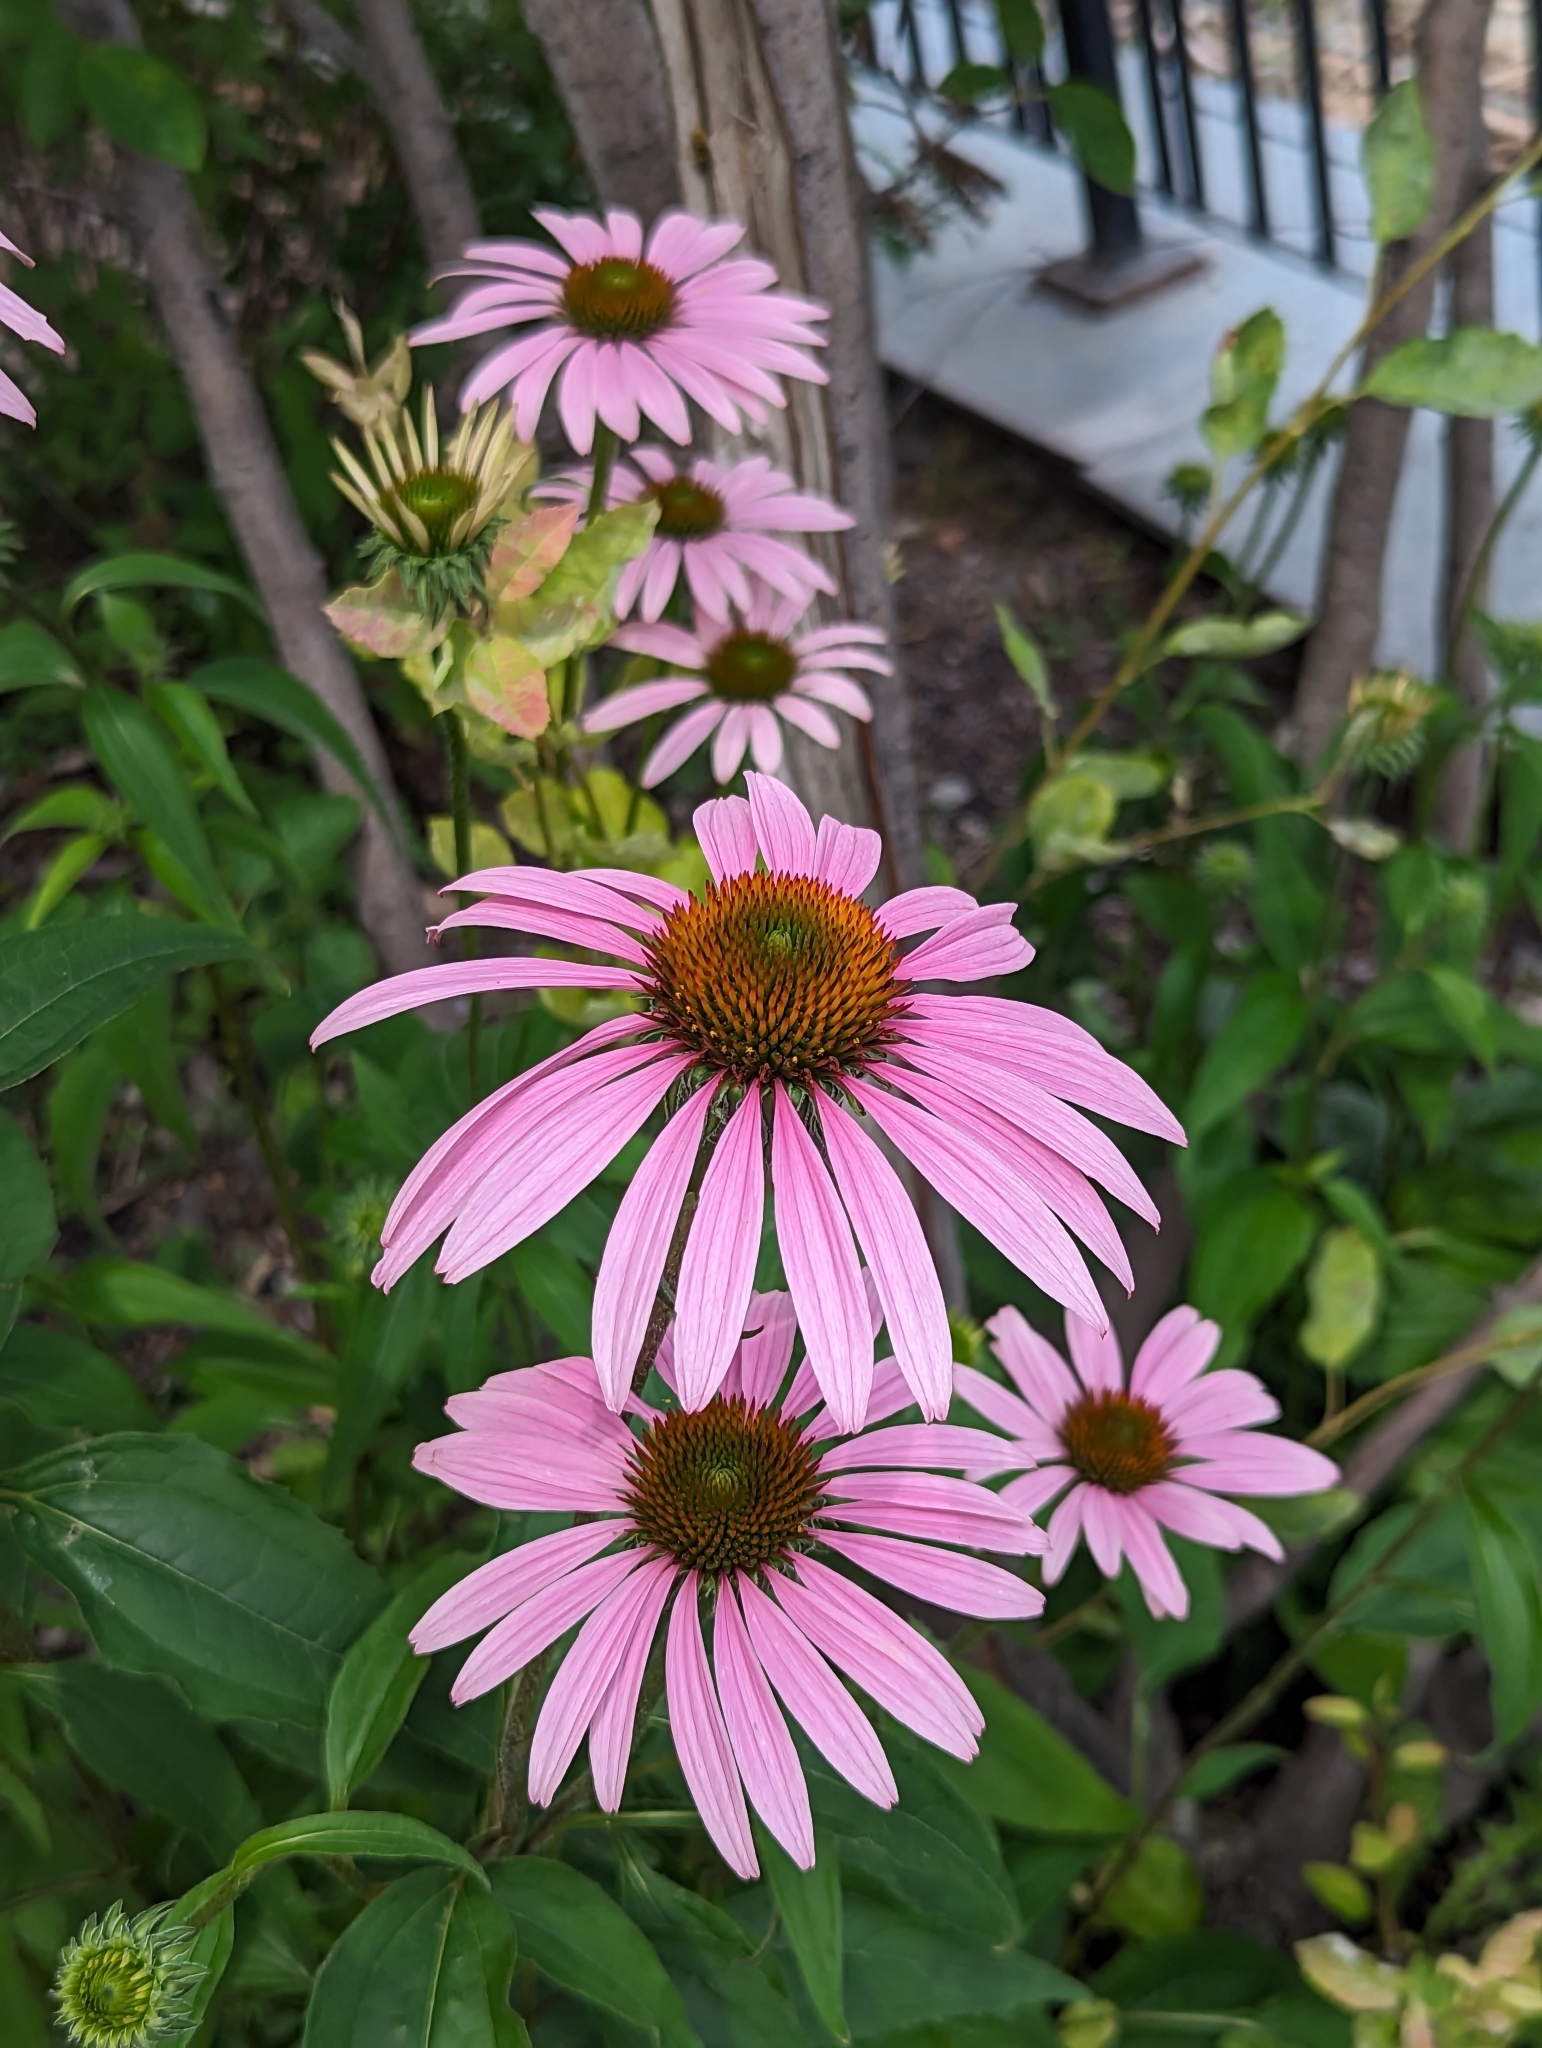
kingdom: Plantae
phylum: Tracheophyta
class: Magnoliopsida
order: Asterales
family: Asteraceae
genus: Echinacea
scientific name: Echinacea purpurea
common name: Broad-leaved purple coneflower
